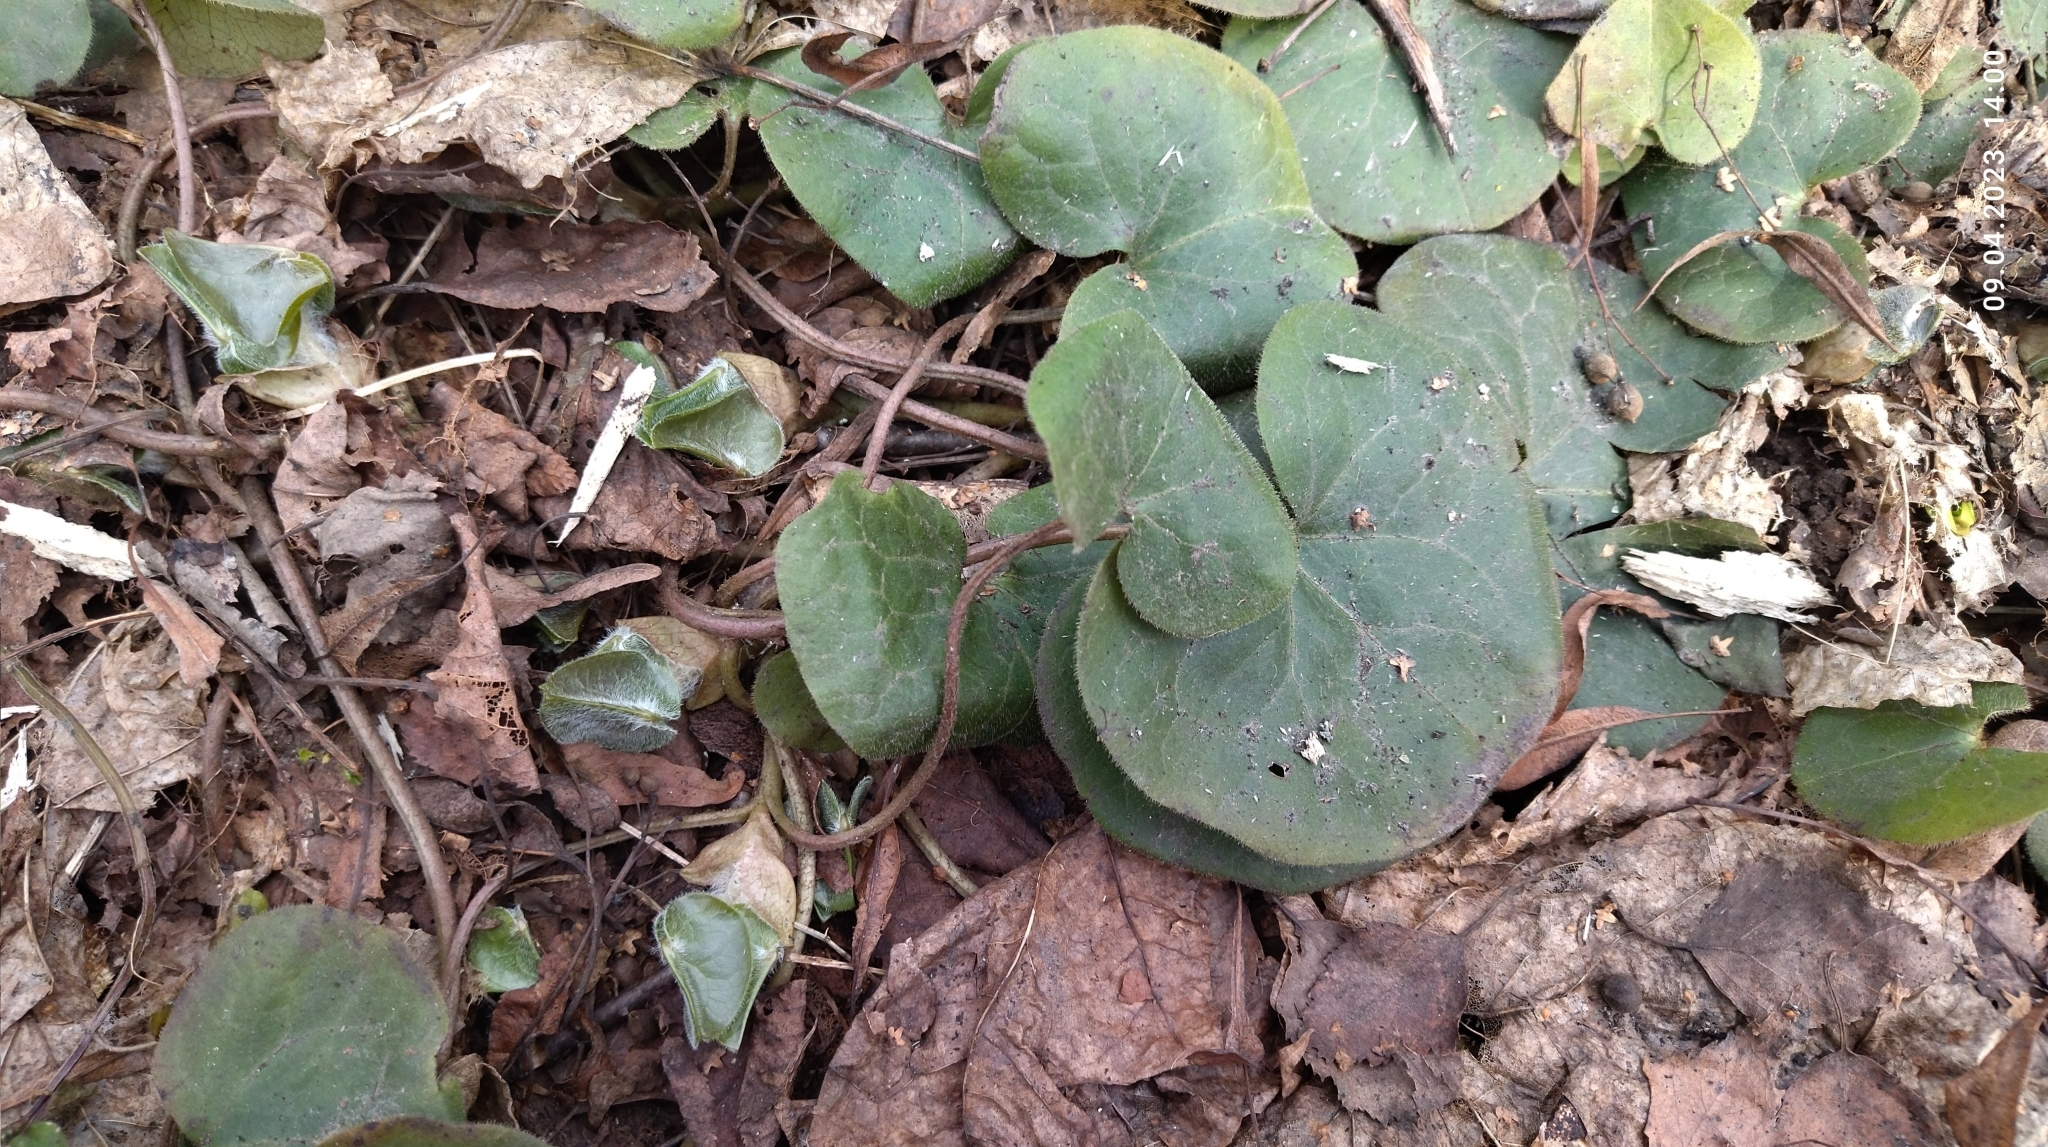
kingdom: Plantae
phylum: Tracheophyta
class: Magnoliopsida
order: Piperales
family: Aristolochiaceae
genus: Asarum
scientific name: Asarum europaeum
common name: Asarabacca
